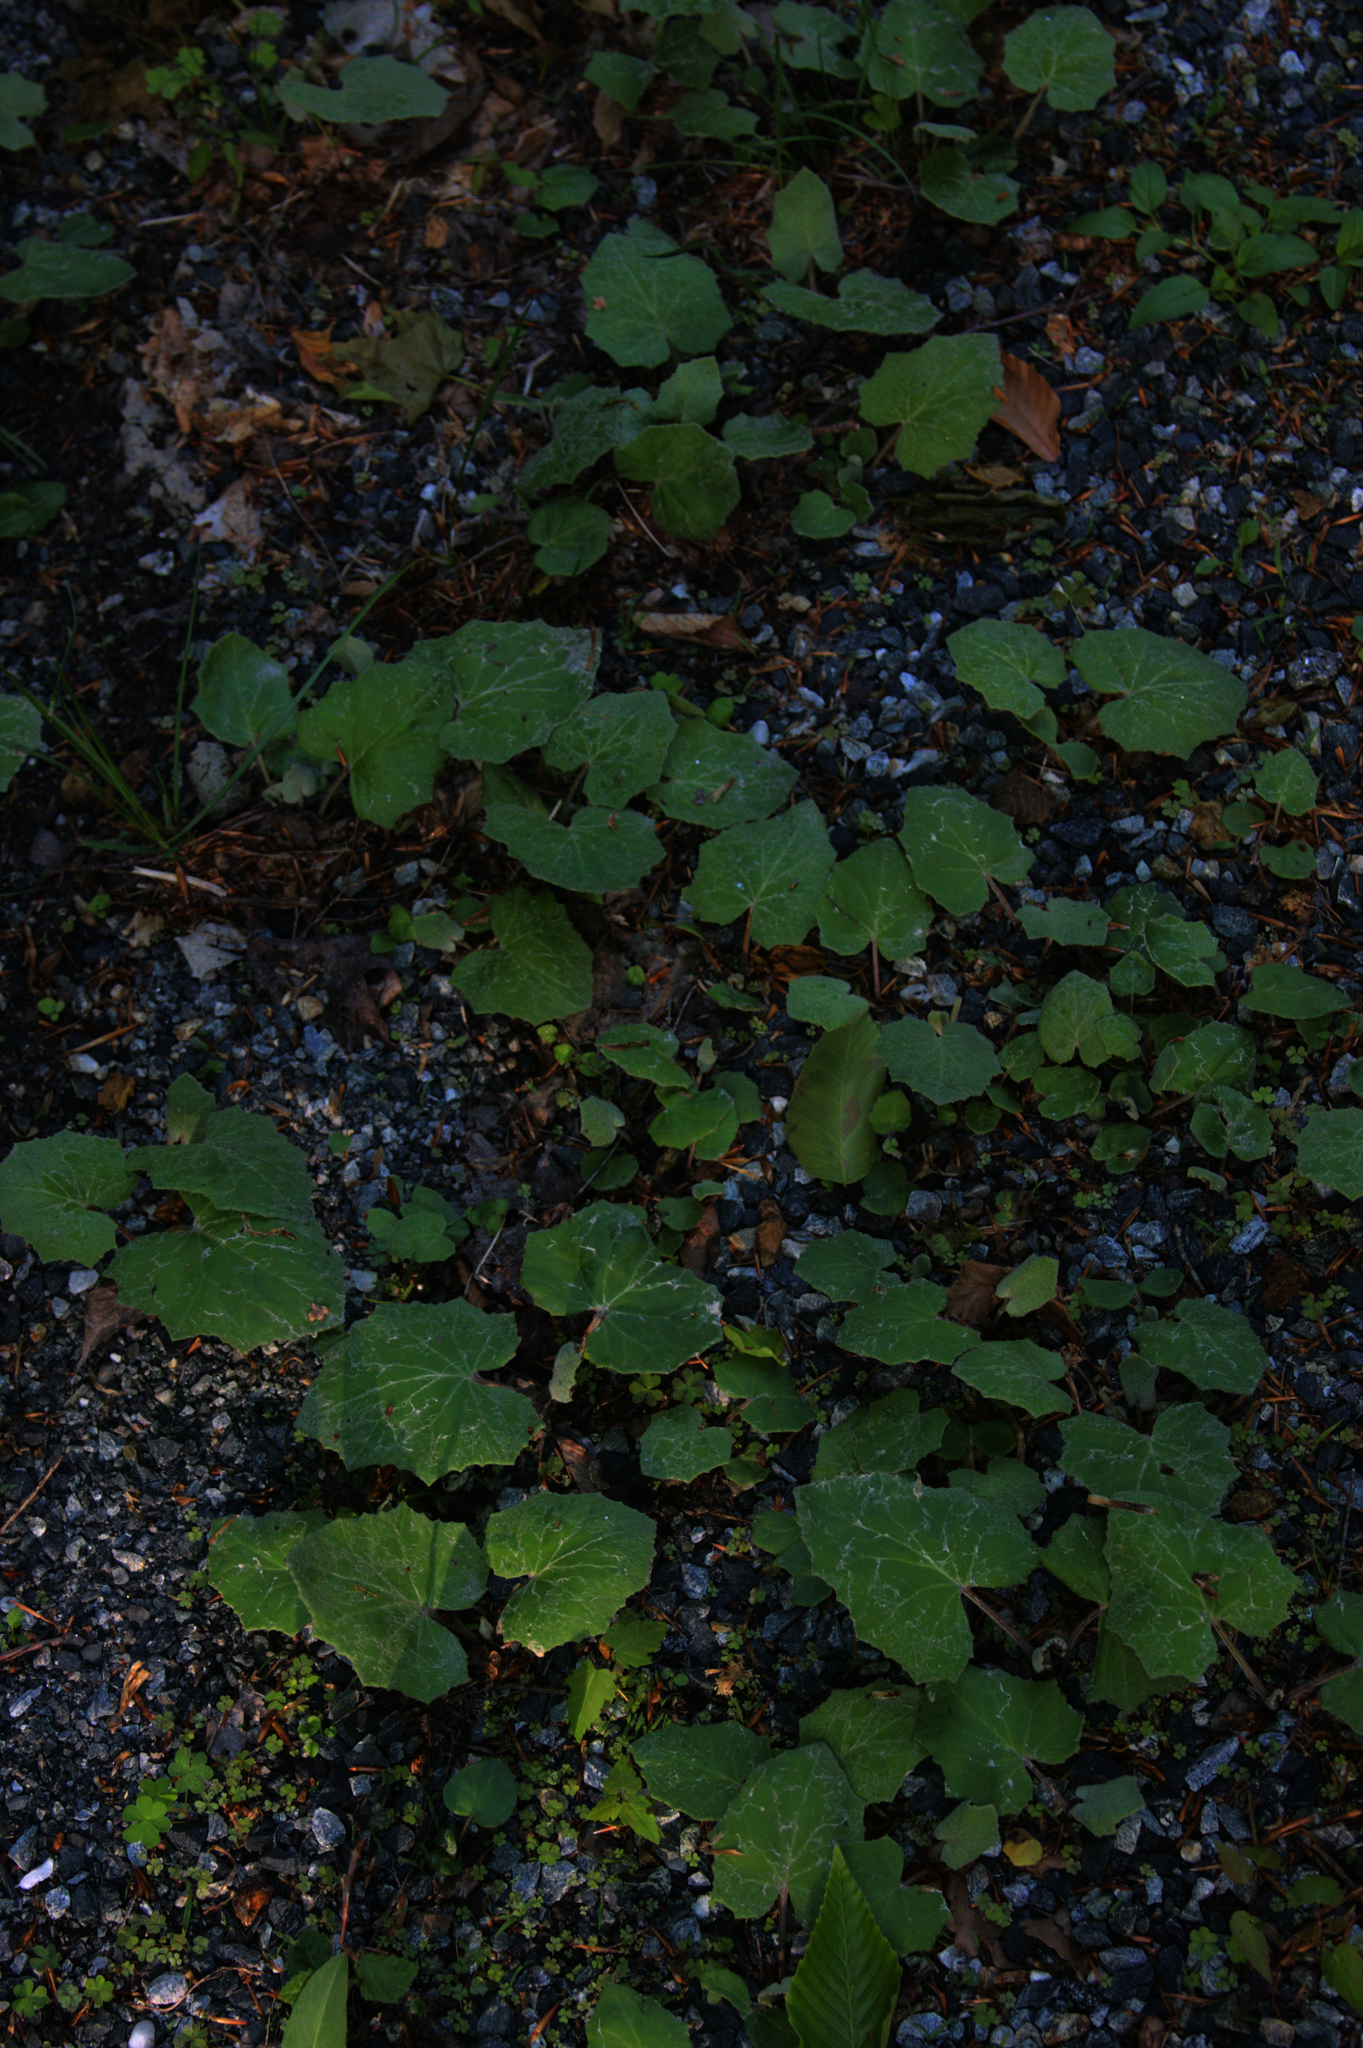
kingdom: Plantae
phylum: Tracheophyta
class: Magnoliopsida
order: Asterales
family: Asteraceae
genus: Tussilago
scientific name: Tussilago farfara
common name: Coltsfoot
